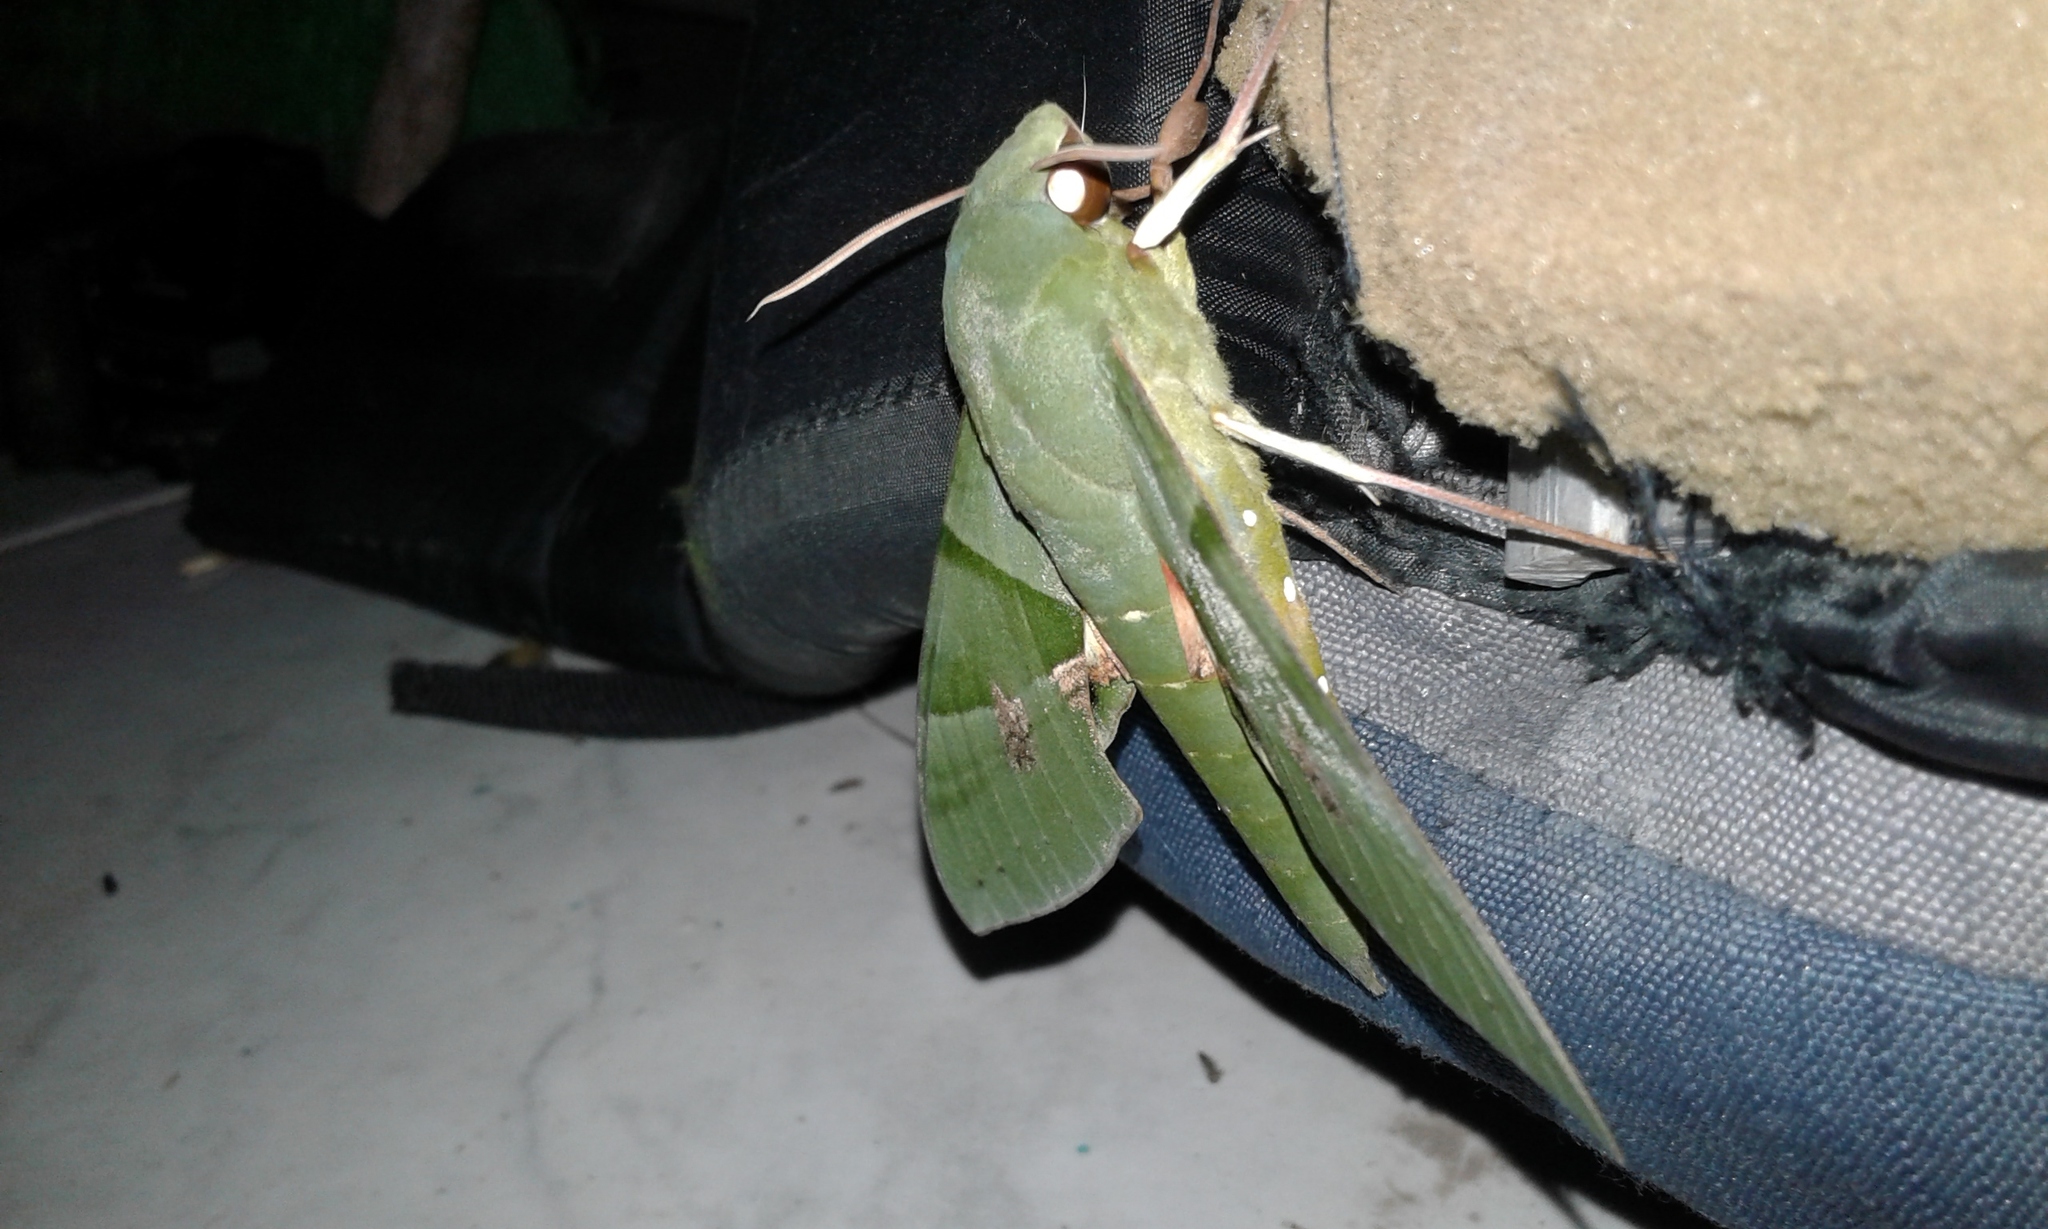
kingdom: Animalia
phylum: Arthropoda
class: Insecta
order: Lepidoptera
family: Sphingidae
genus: Eumorpha
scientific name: Eumorpha labruscae
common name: Gaudy sphinx
